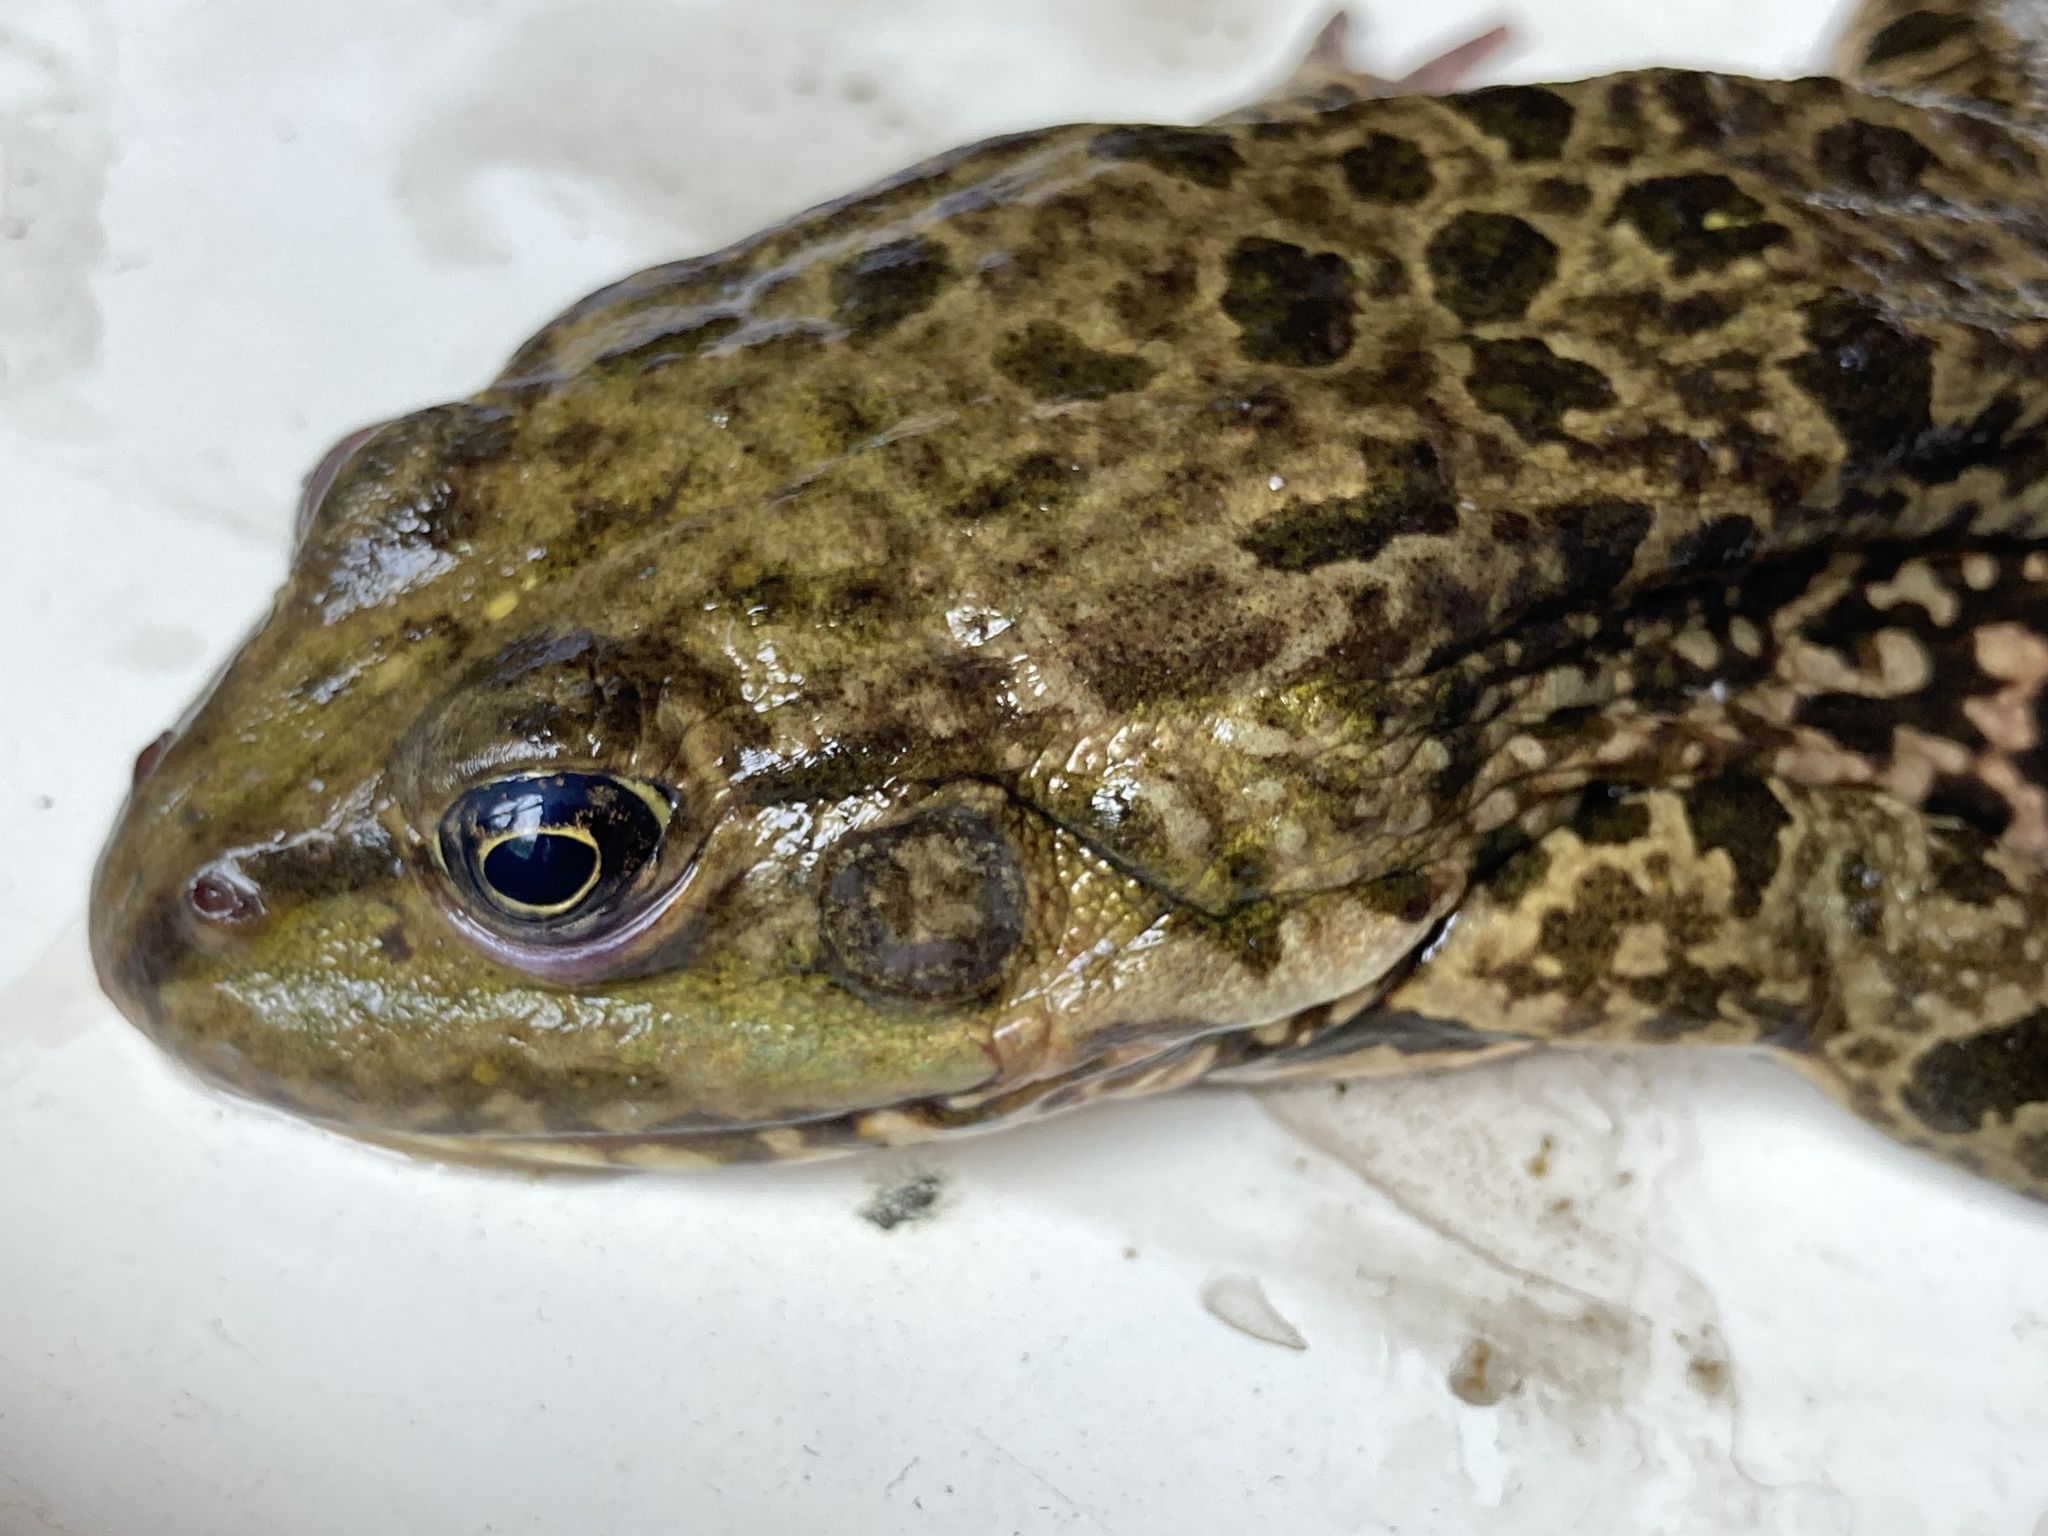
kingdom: Animalia
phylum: Chordata
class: Amphibia
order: Anura
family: Ranidae
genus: Pelophylax
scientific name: Pelophylax ridibundus
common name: Marsh frog
